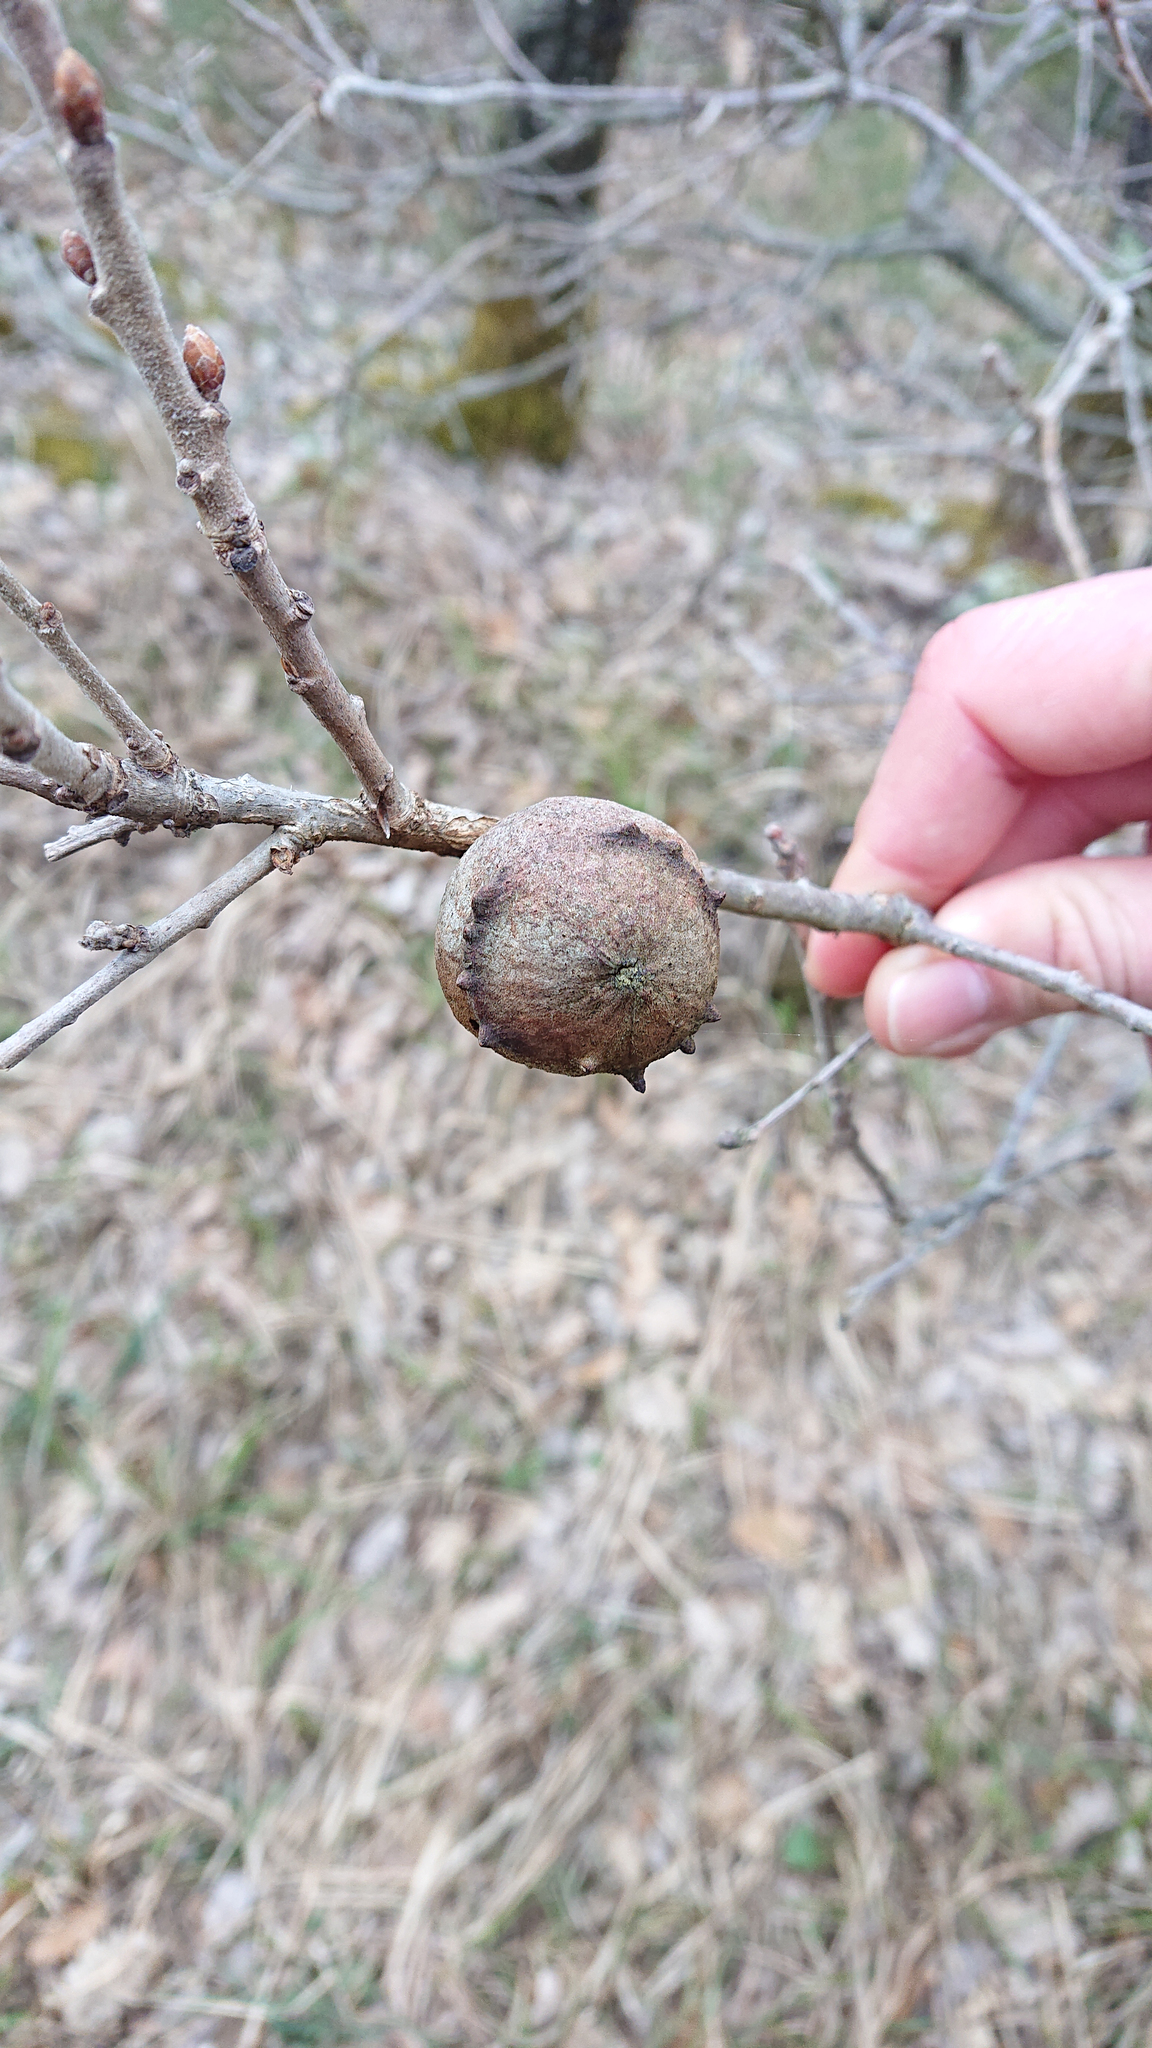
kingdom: Animalia
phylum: Arthropoda
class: Insecta
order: Hymenoptera
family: Cynipidae
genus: Andricus
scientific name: Andricus quercustozae
